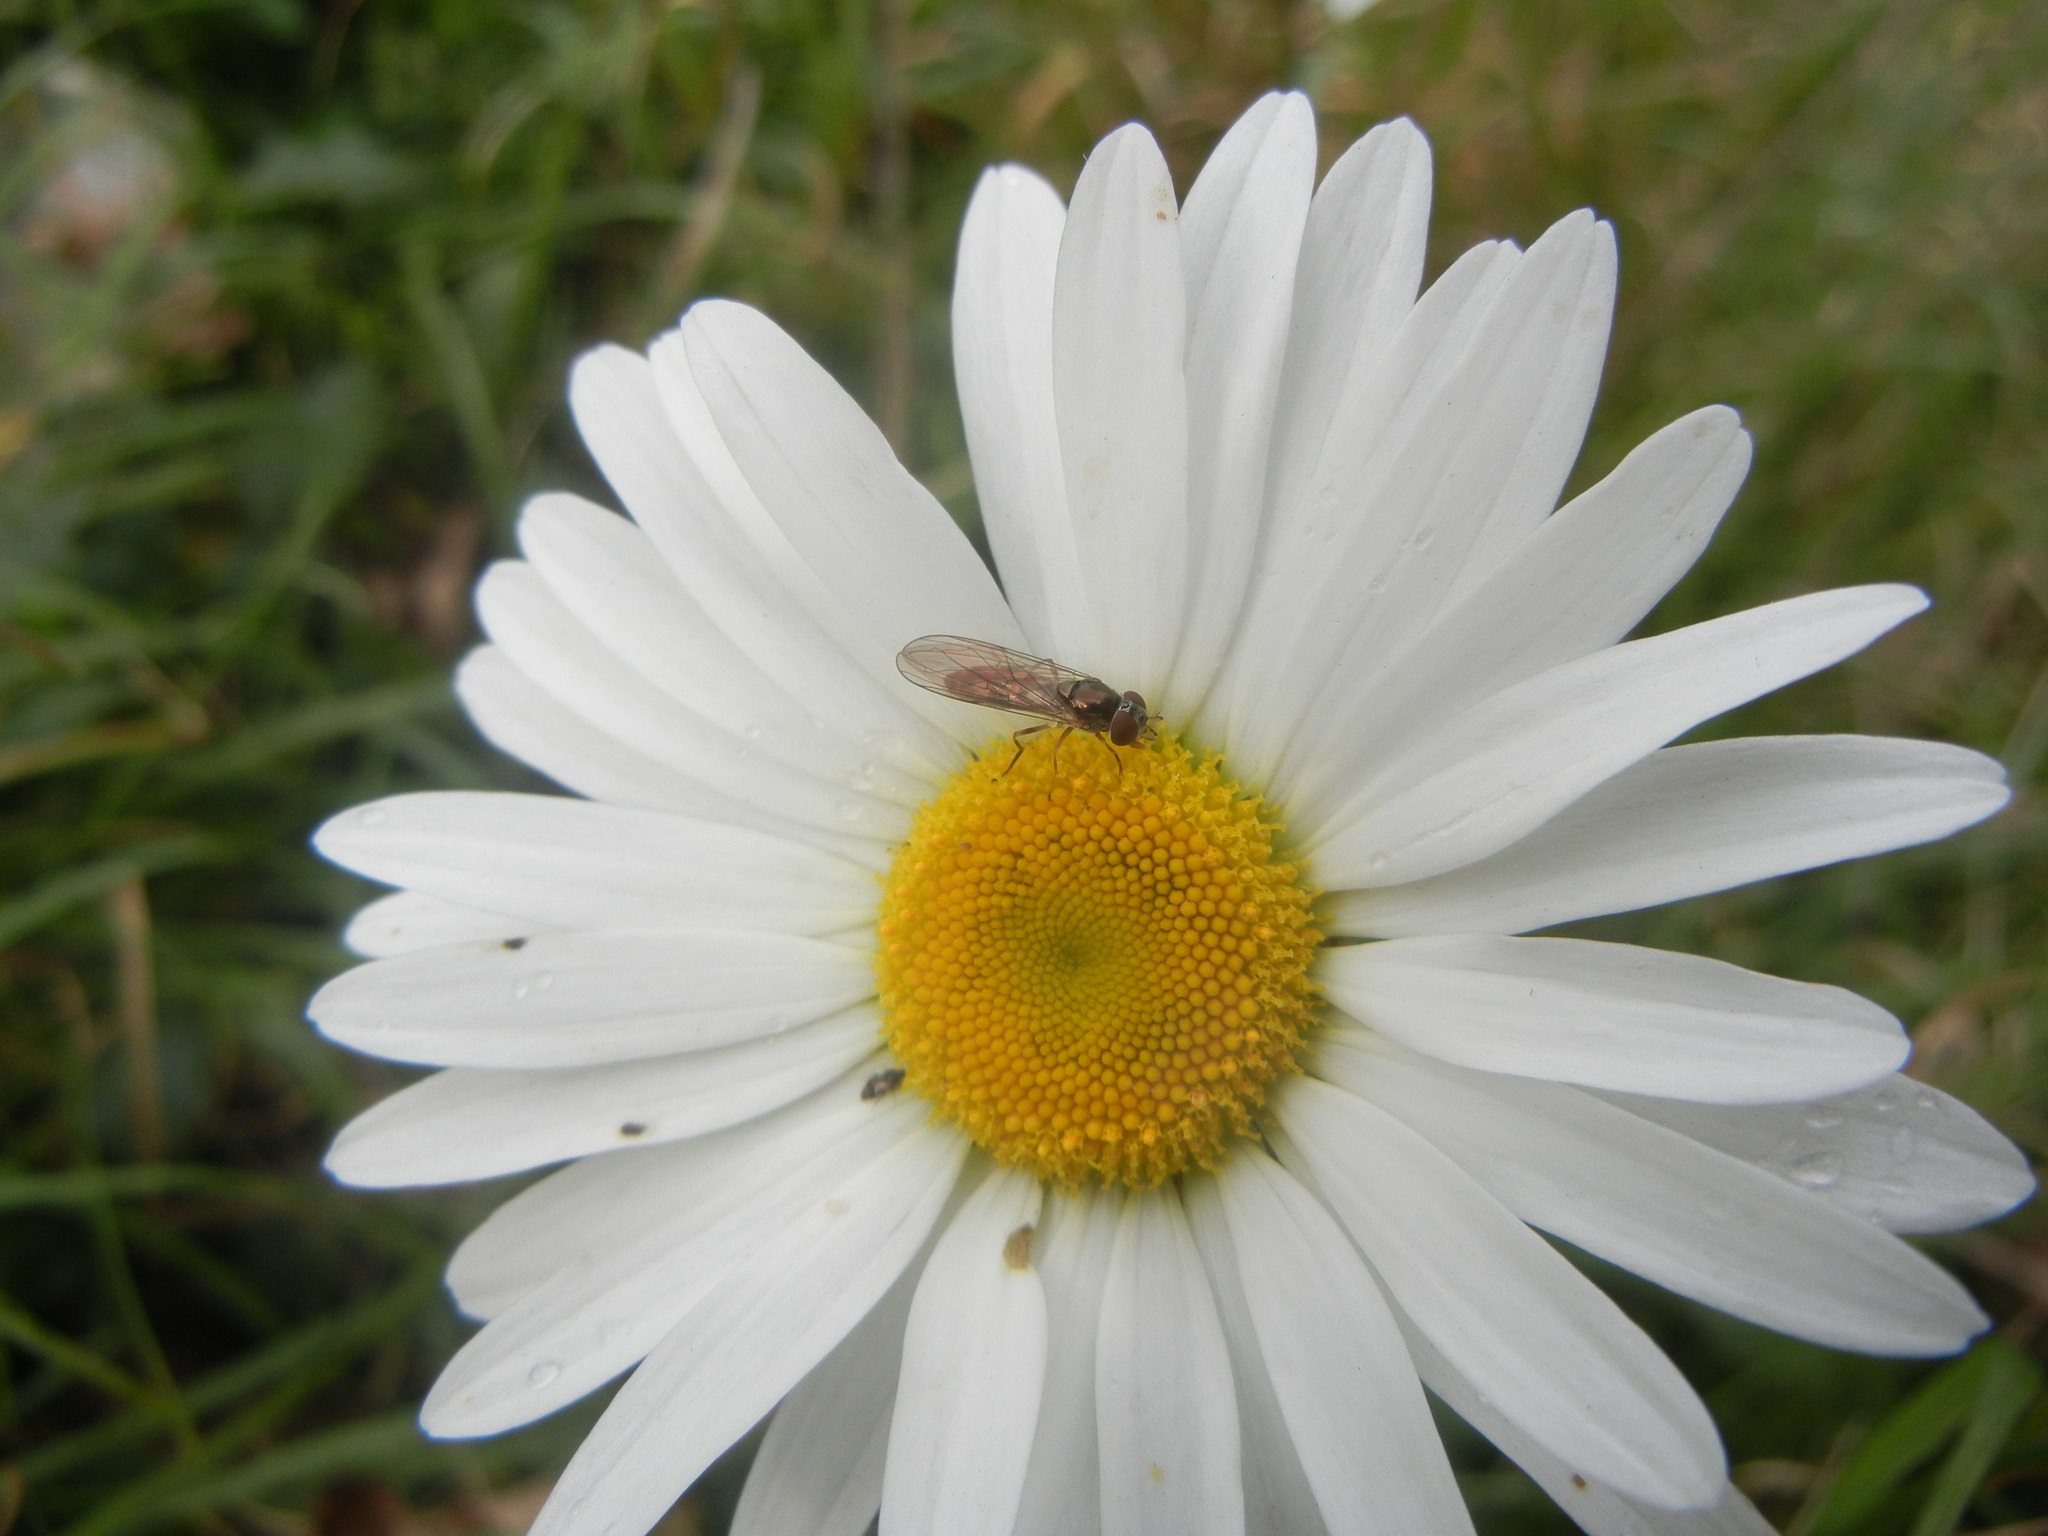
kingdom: Plantae
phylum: Tracheophyta
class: Magnoliopsida
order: Asterales
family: Asteraceae
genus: Leucanthemum
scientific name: Leucanthemum vulgare
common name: Oxeye daisy
